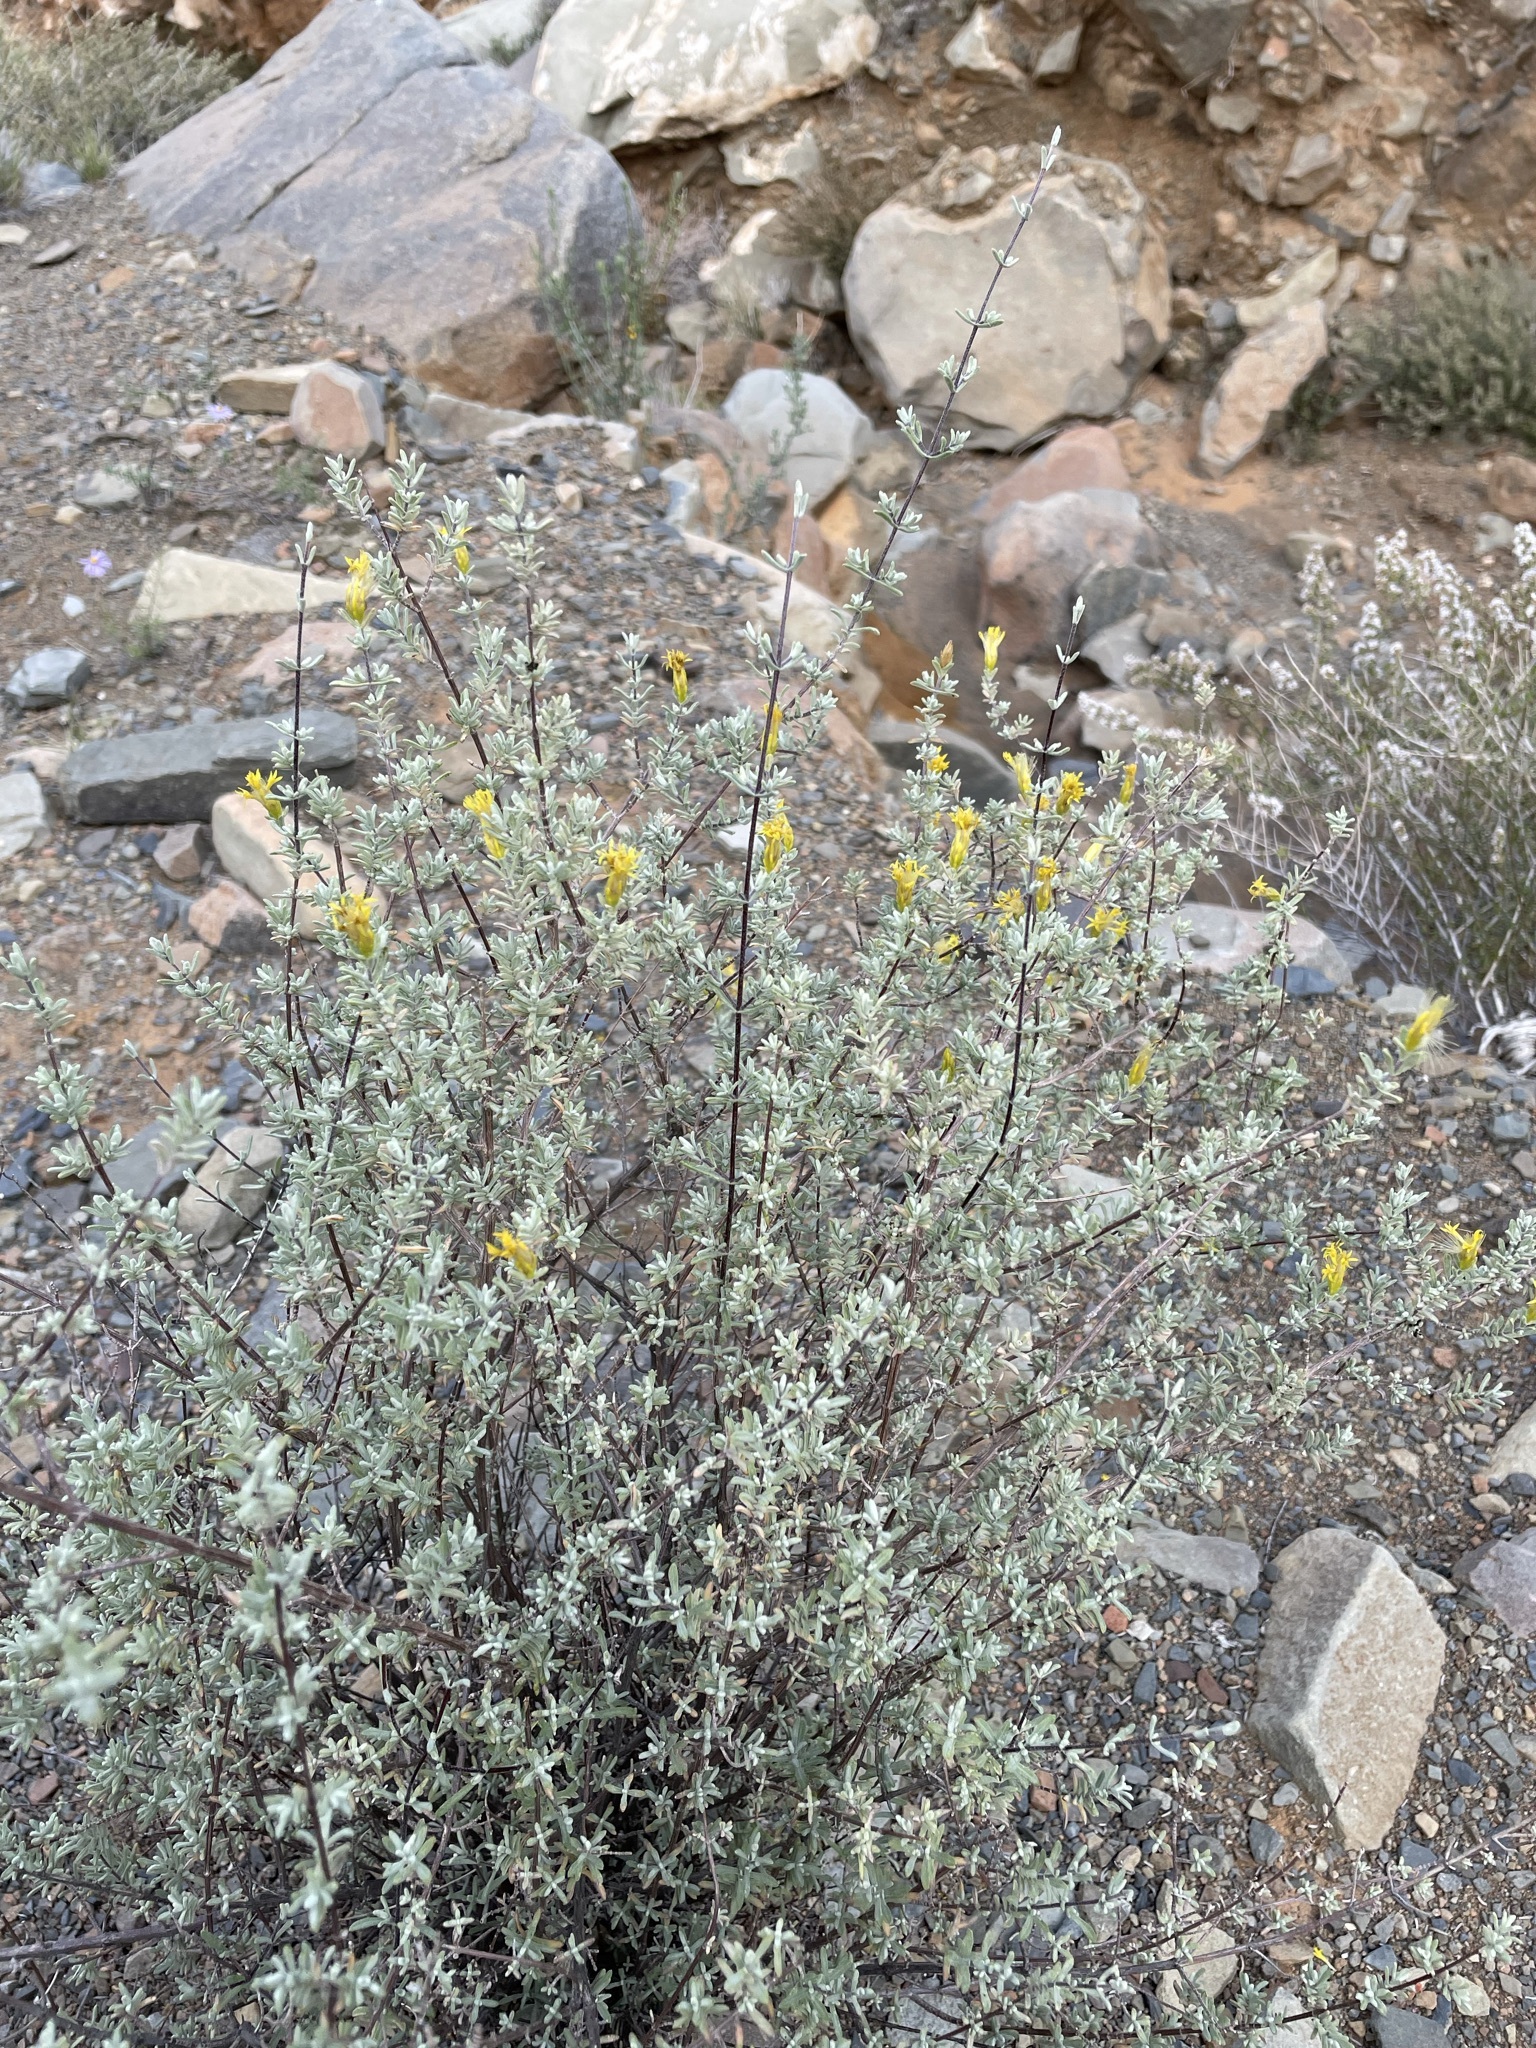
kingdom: Plantae
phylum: Tracheophyta
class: Magnoliopsida
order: Asterales
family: Asteraceae
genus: Pteronia
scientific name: Pteronia incana
